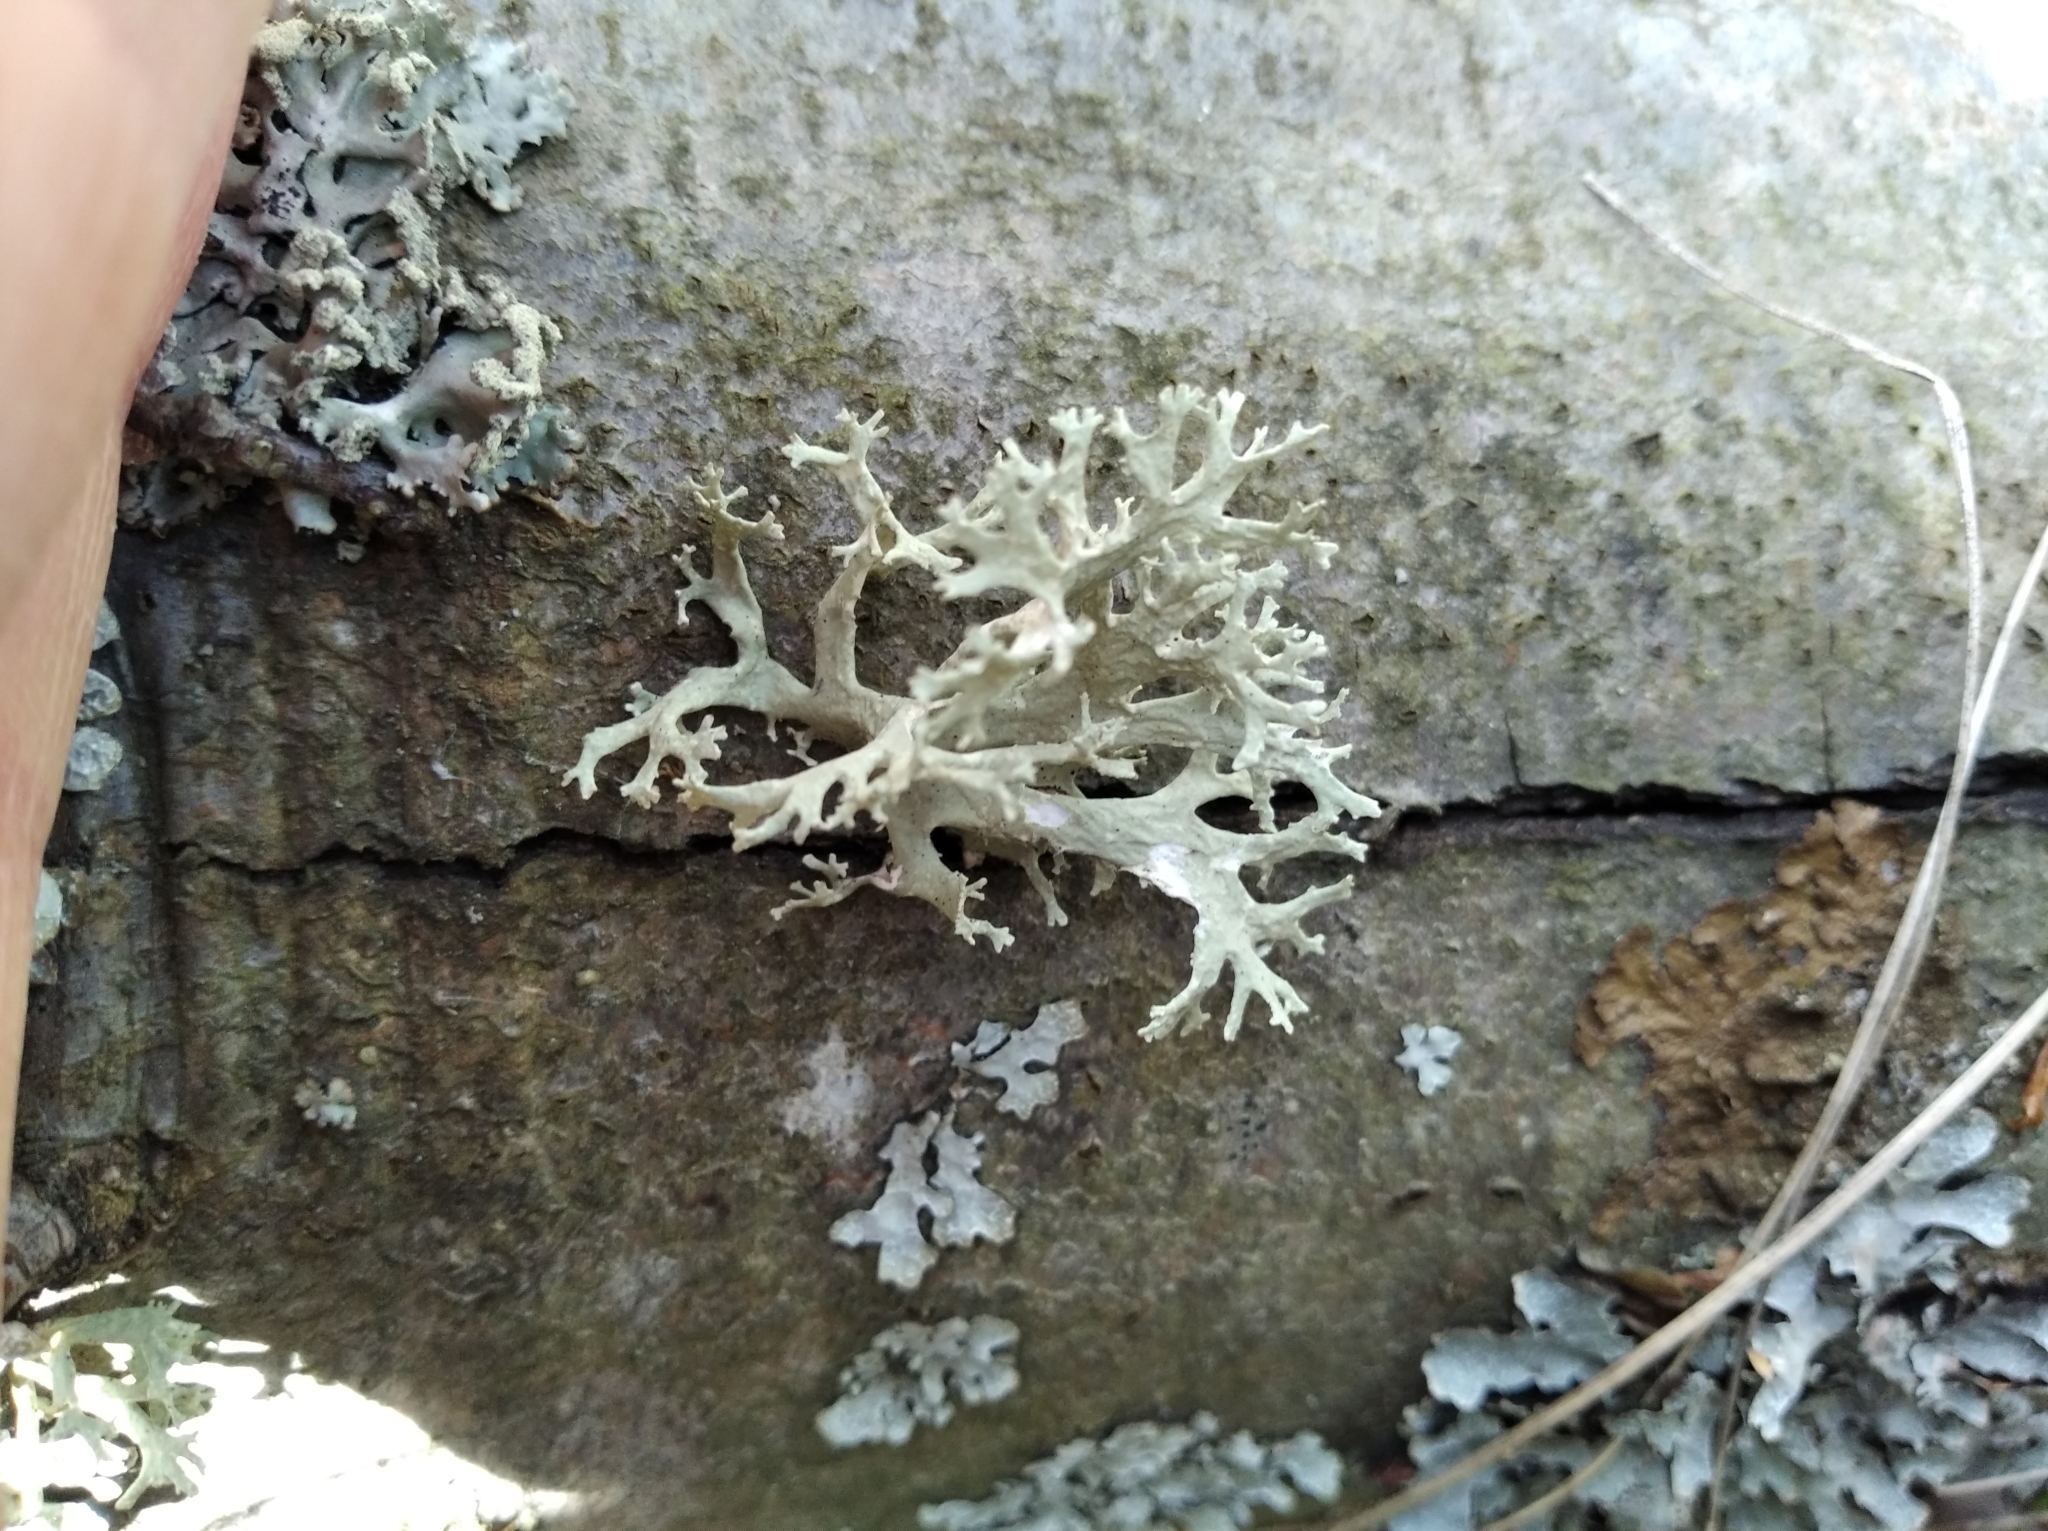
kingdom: Fungi
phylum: Ascomycota
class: Lecanoromycetes
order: Lecanorales
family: Parmeliaceae
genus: Evernia
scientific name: Evernia prunastri
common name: Oak moss
